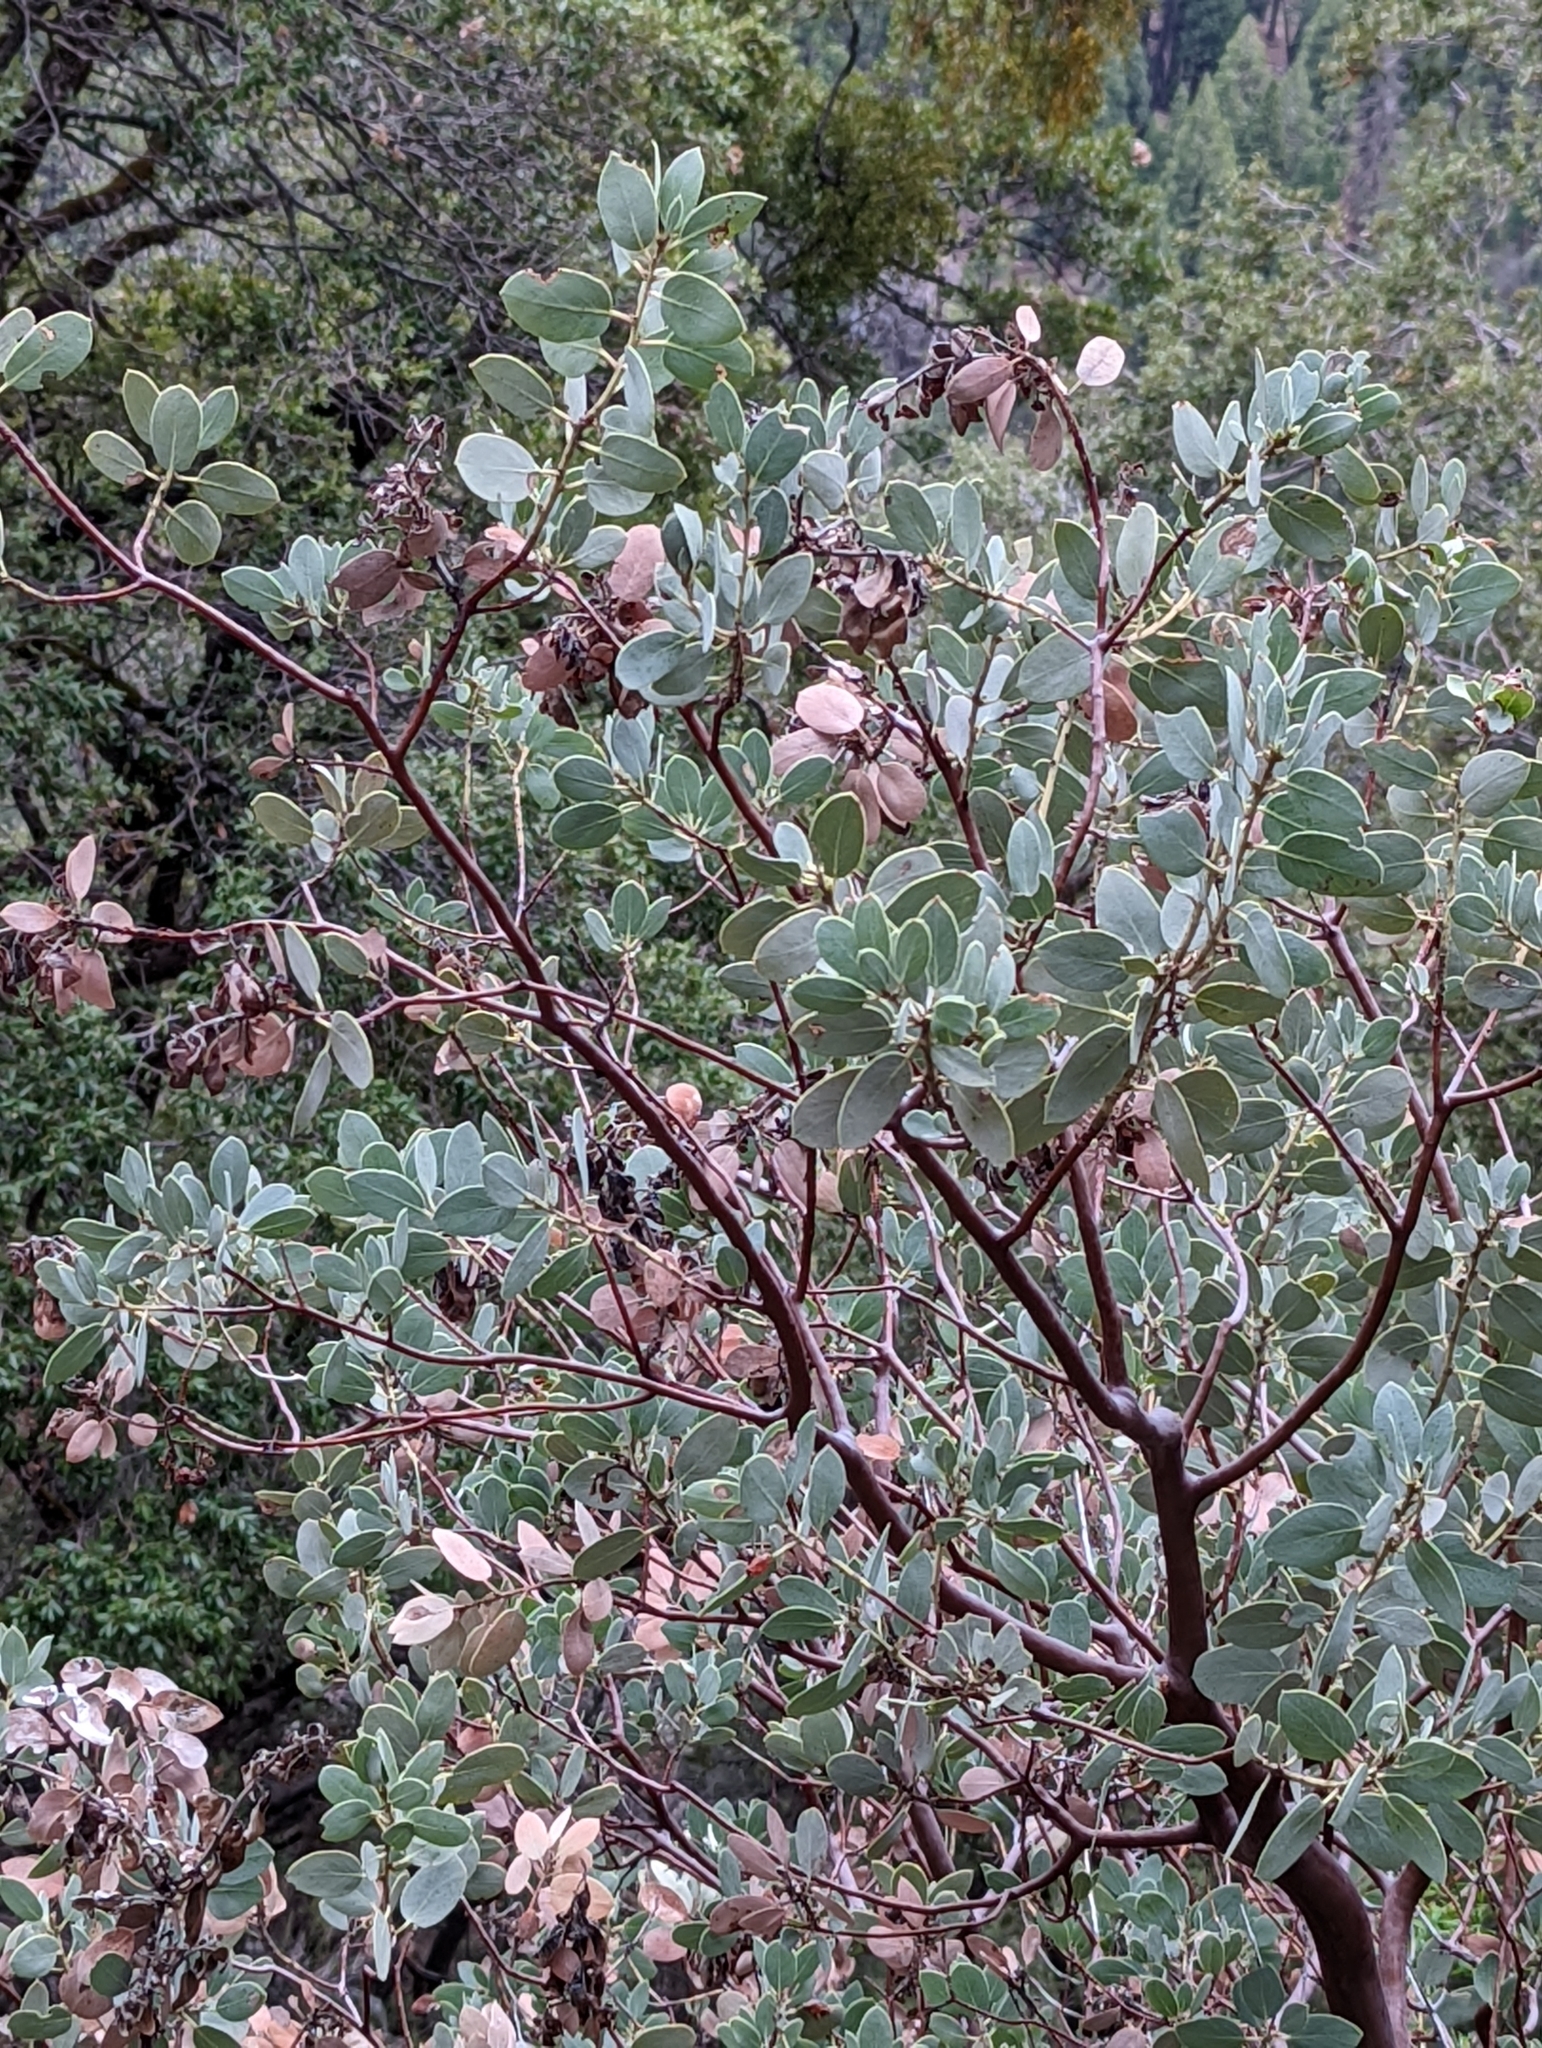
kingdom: Plantae
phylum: Tracheophyta
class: Magnoliopsida
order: Ericales
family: Ericaceae
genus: Arctostaphylos
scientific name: Arctostaphylos viscida
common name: White-leaf manzanita
